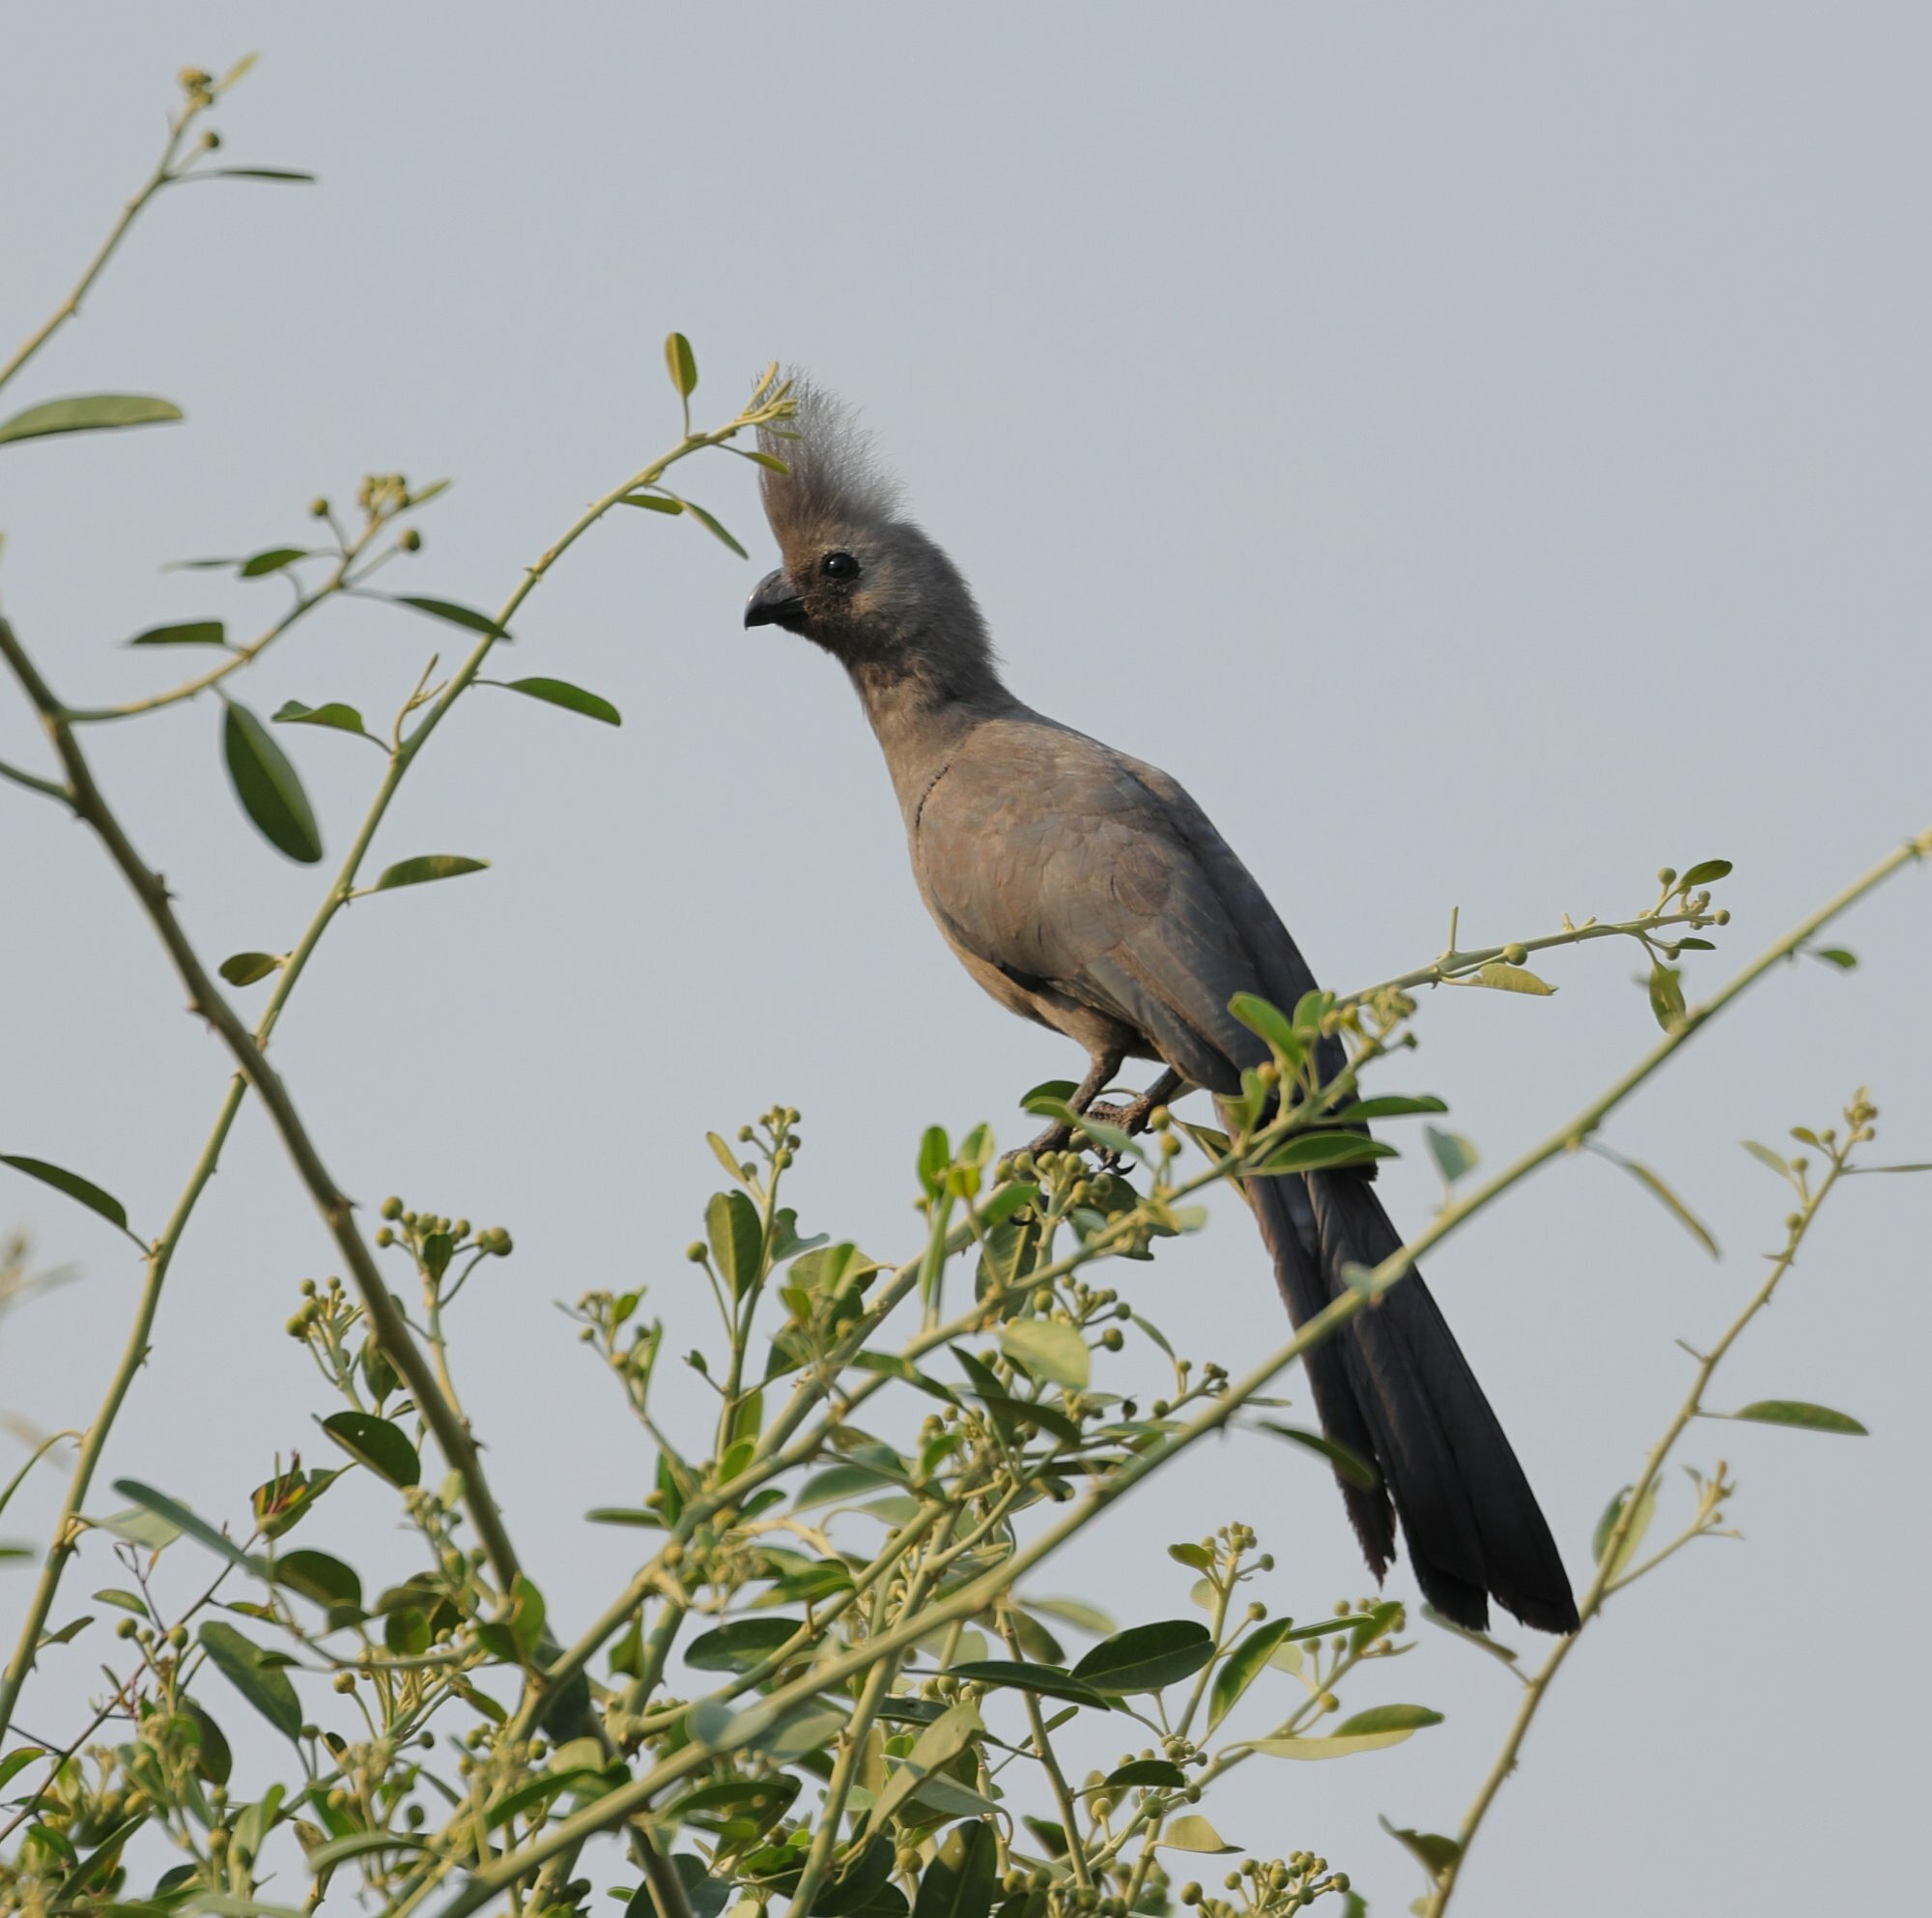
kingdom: Animalia
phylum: Chordata
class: Aves
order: Musophagiformes
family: Musophagidae
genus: Corythaixoides
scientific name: Corythaixoides concolor
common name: Grey go-away-bird
